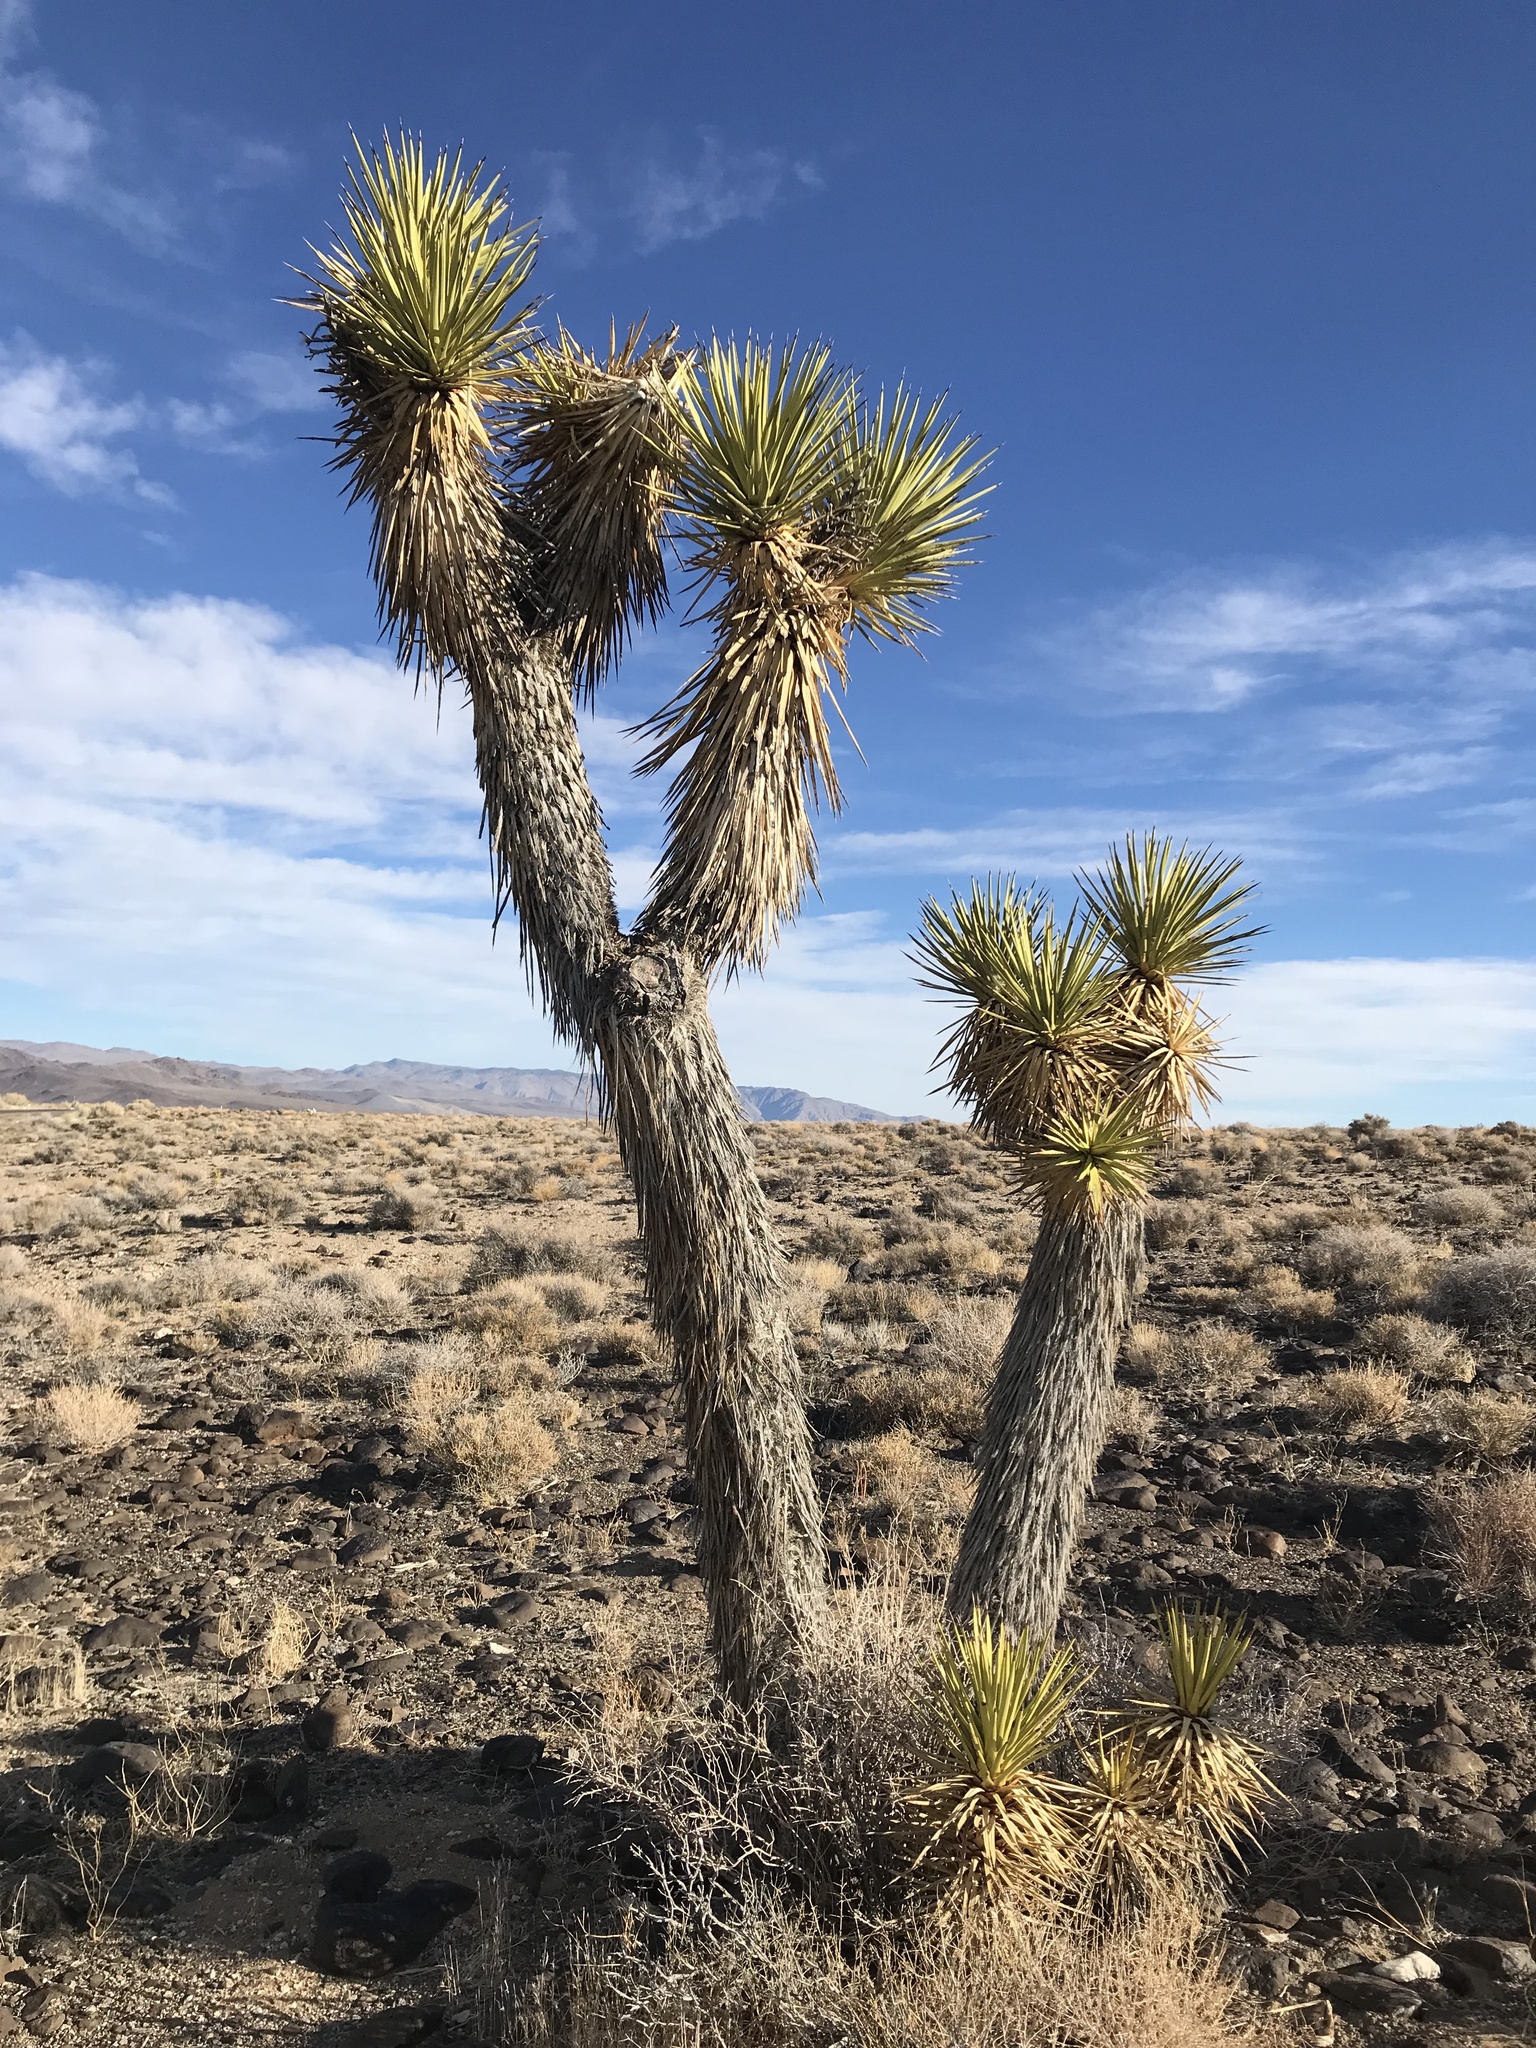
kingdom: Plantae
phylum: Tracheophyta
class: Liliopsida
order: Asparagales
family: Asparagaceae
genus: Yucca
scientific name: Yucca brevifolia
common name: Joshua tree
